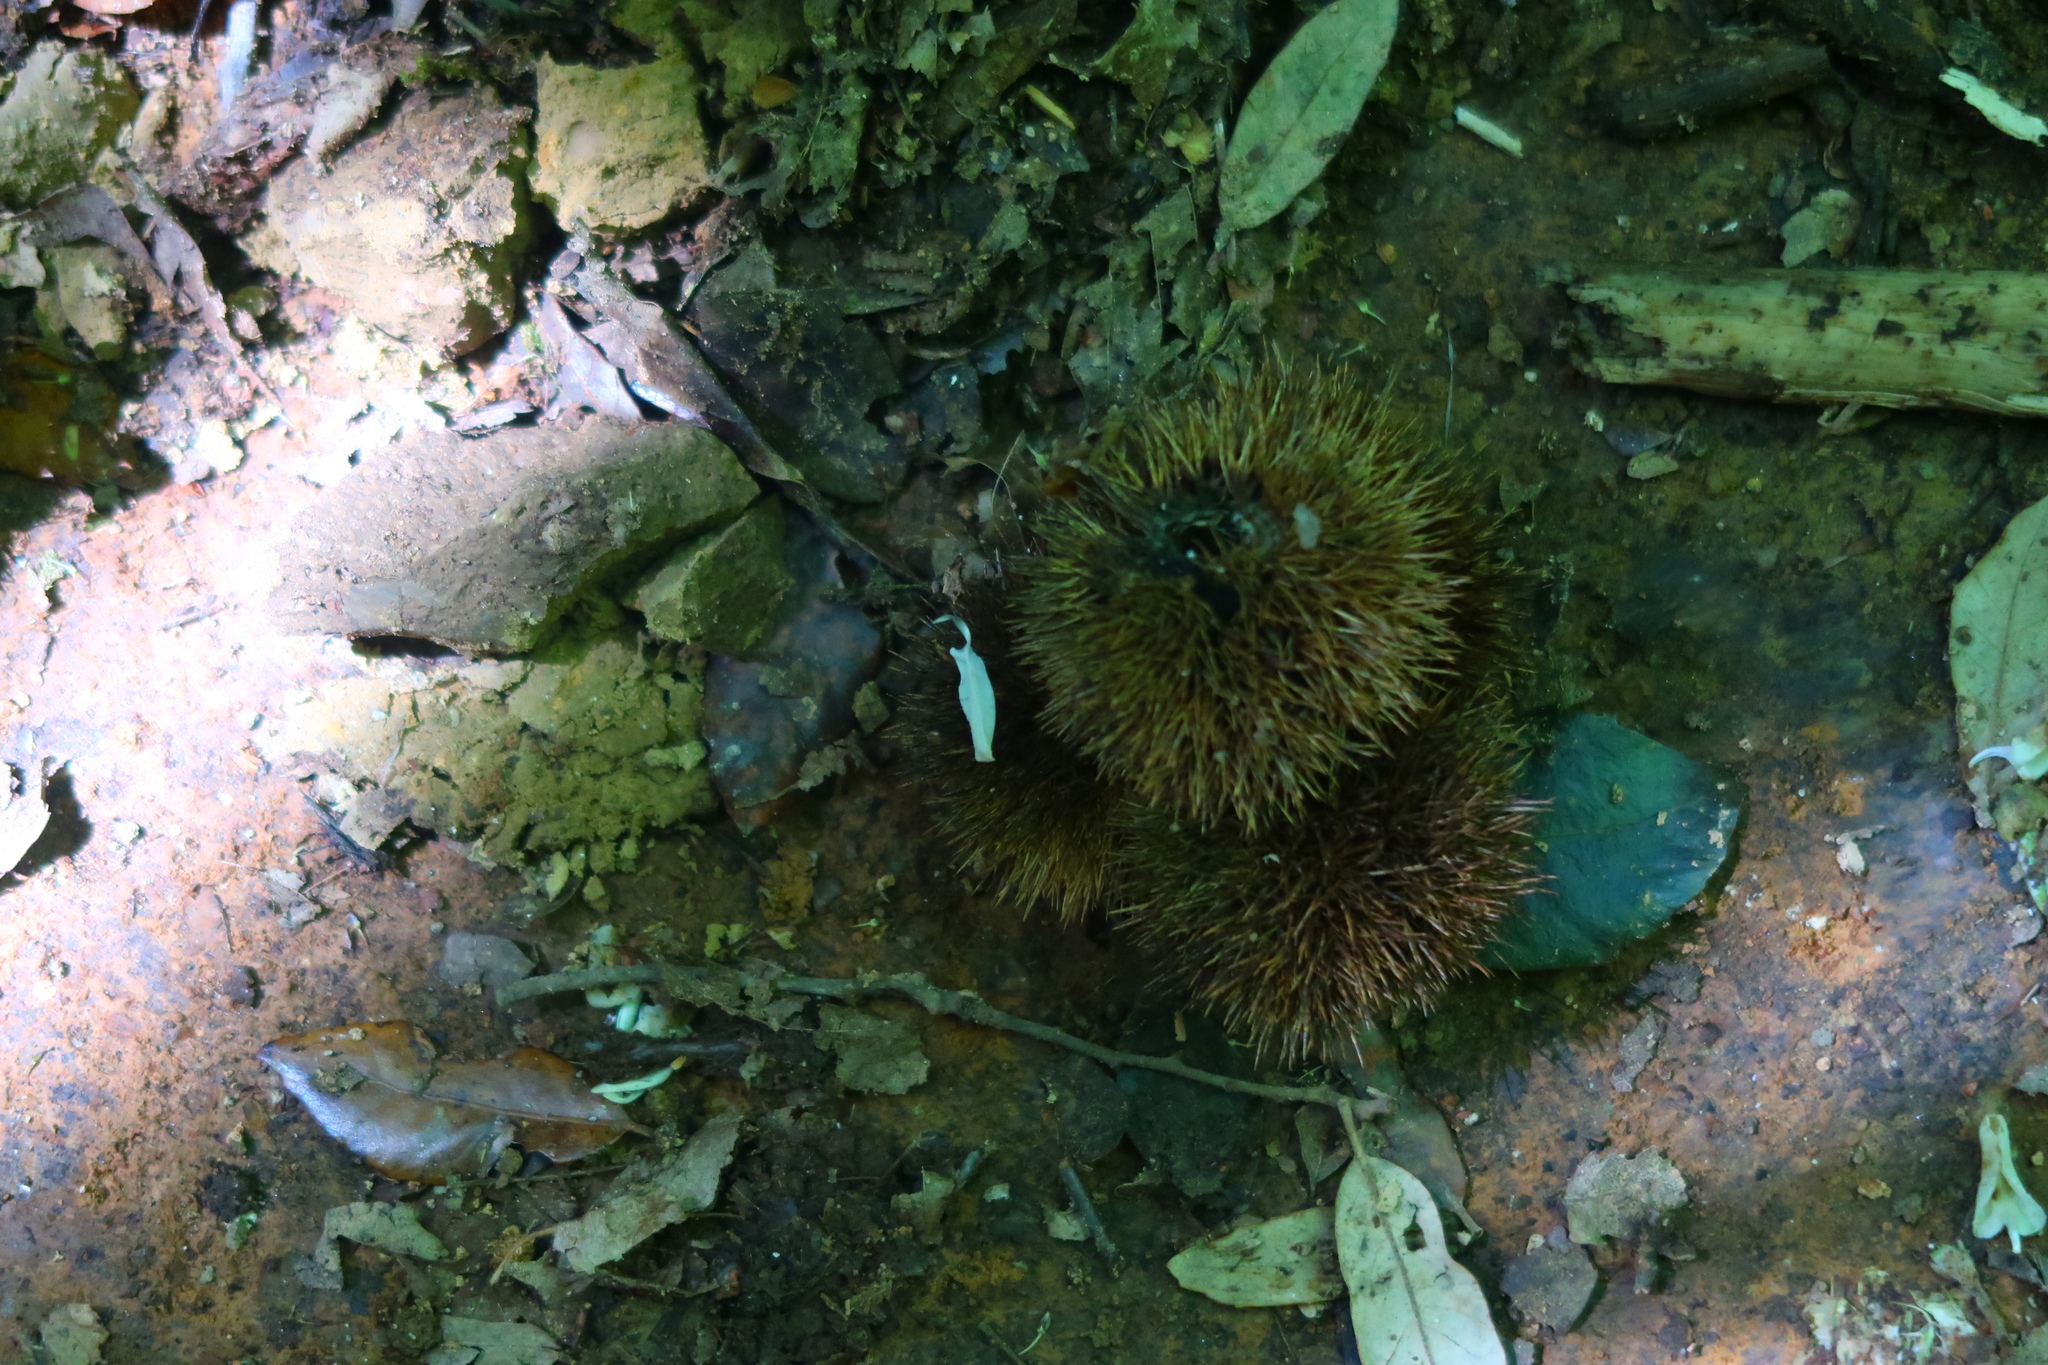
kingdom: Plantae
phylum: Tracheophyta
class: Magnoliopsida
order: Fagales
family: Fagaceae
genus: Castanea
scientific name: Castanea sativa
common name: Sweet chestnut
